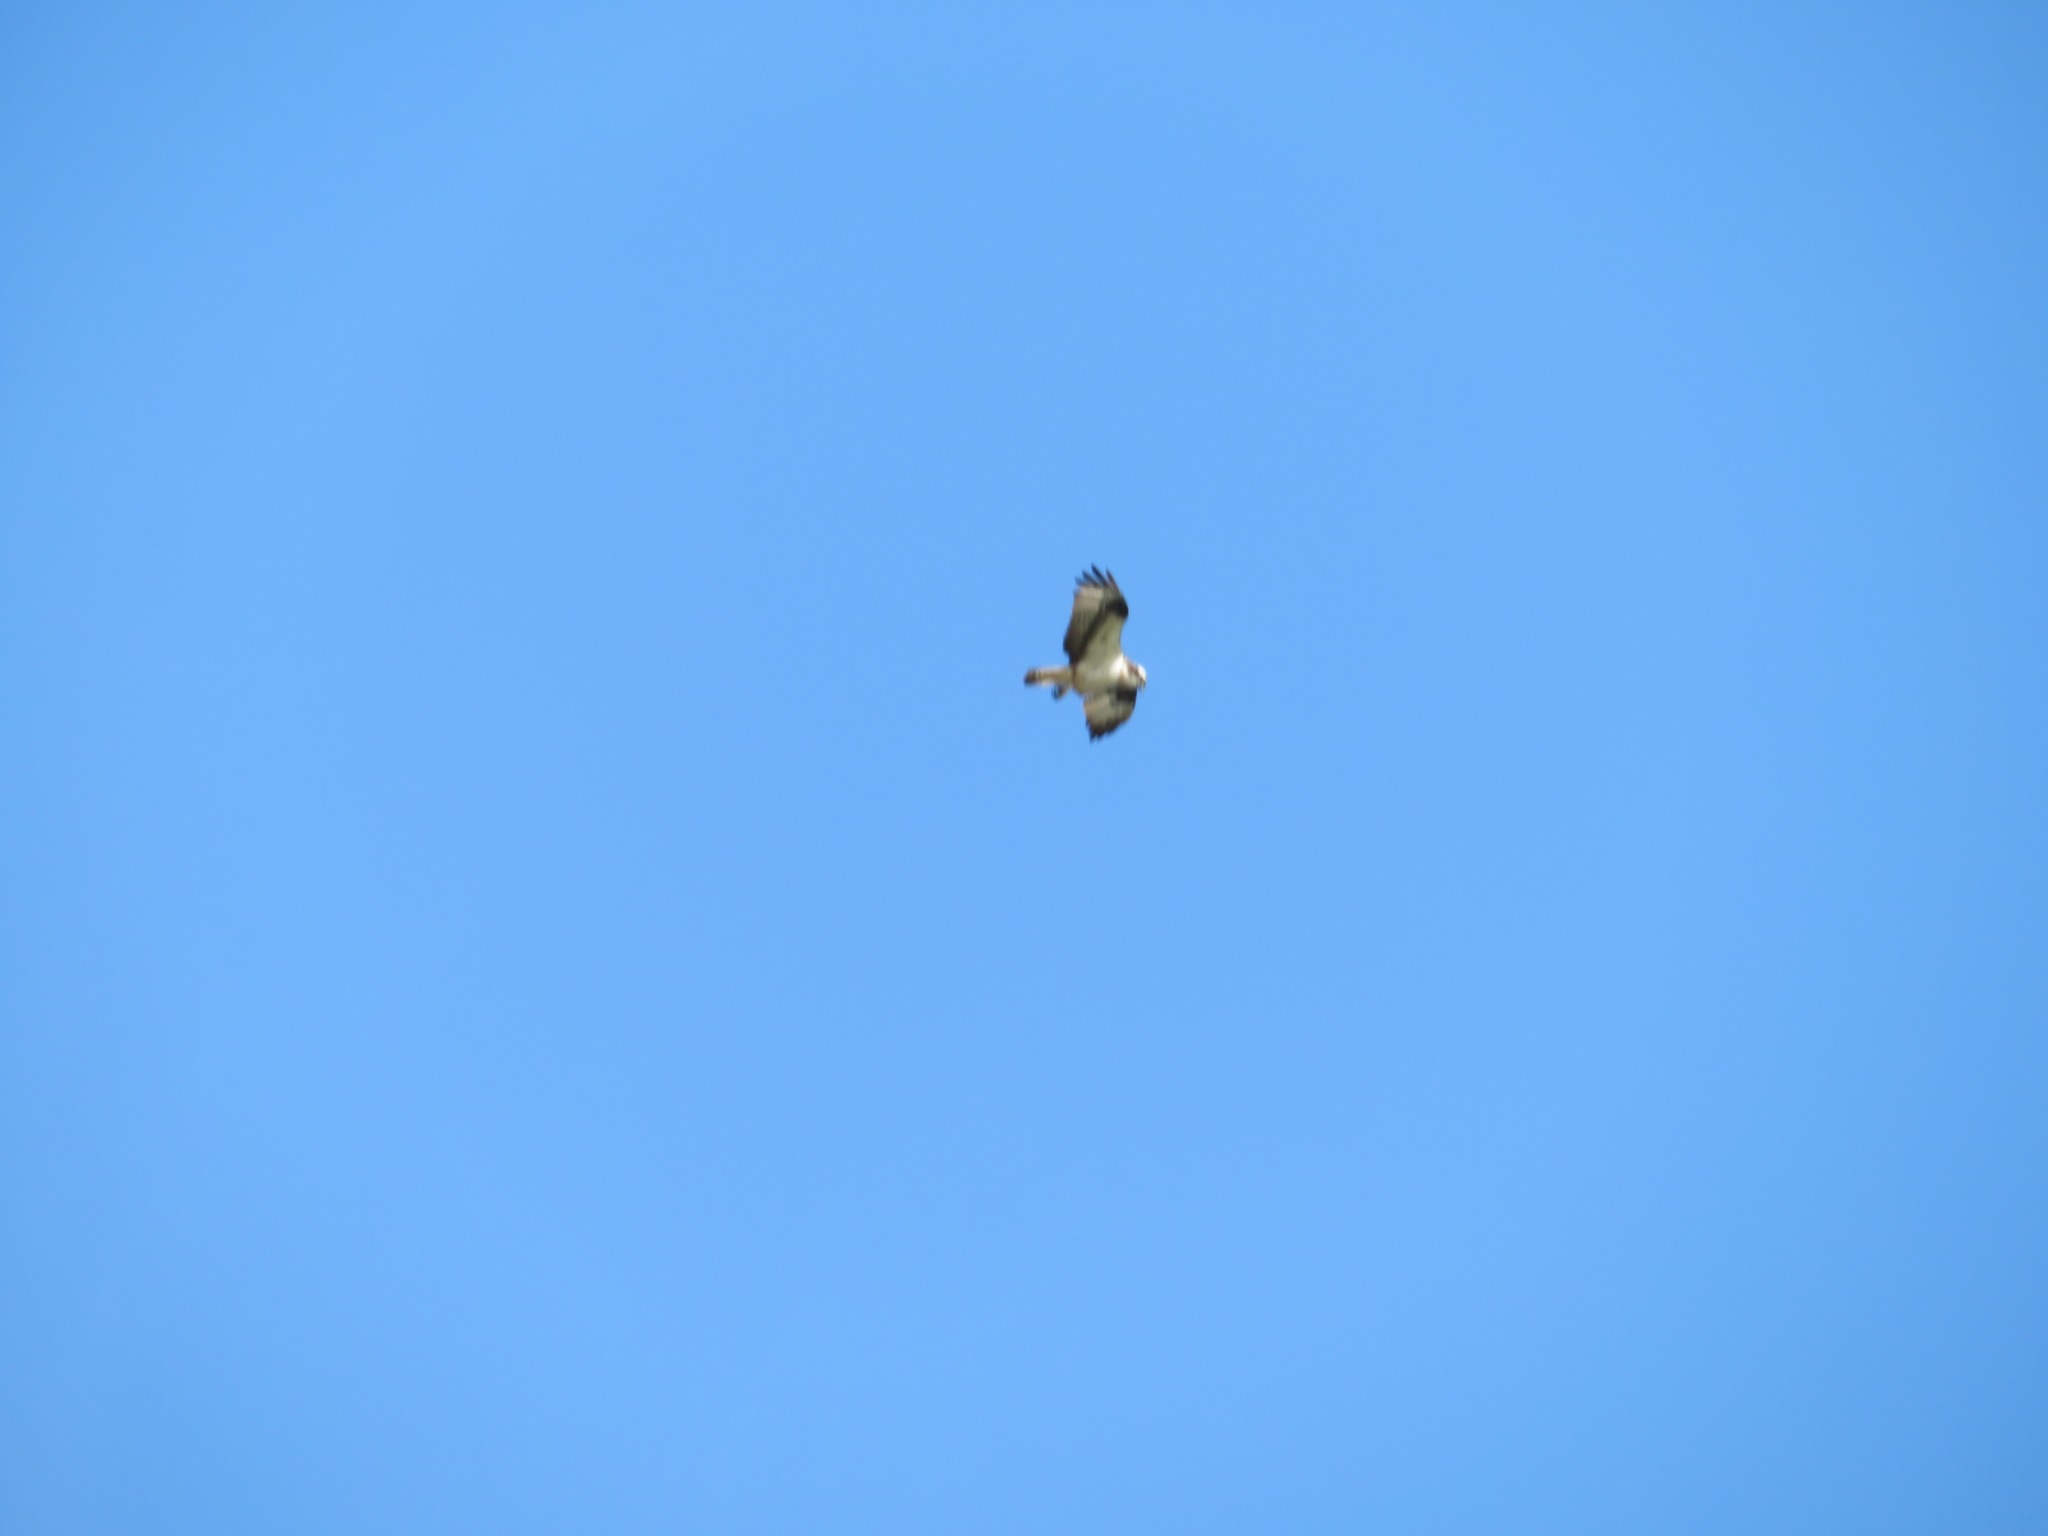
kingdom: Animalia
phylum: Chordata
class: Aves
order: Accipitriformes
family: Pandionidae
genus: Pandion
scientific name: Pandion haliaetus
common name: Osprey
